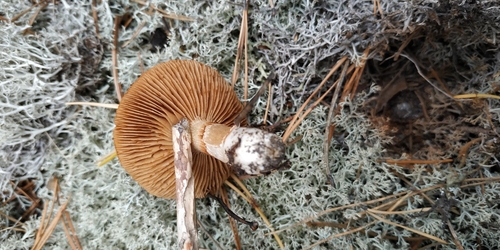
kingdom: Fungi
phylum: Basidiomycota
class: Agaricomycetes
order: Agaricales
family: Cortinariaceae
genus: Cortinarius
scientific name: Cortinarius
